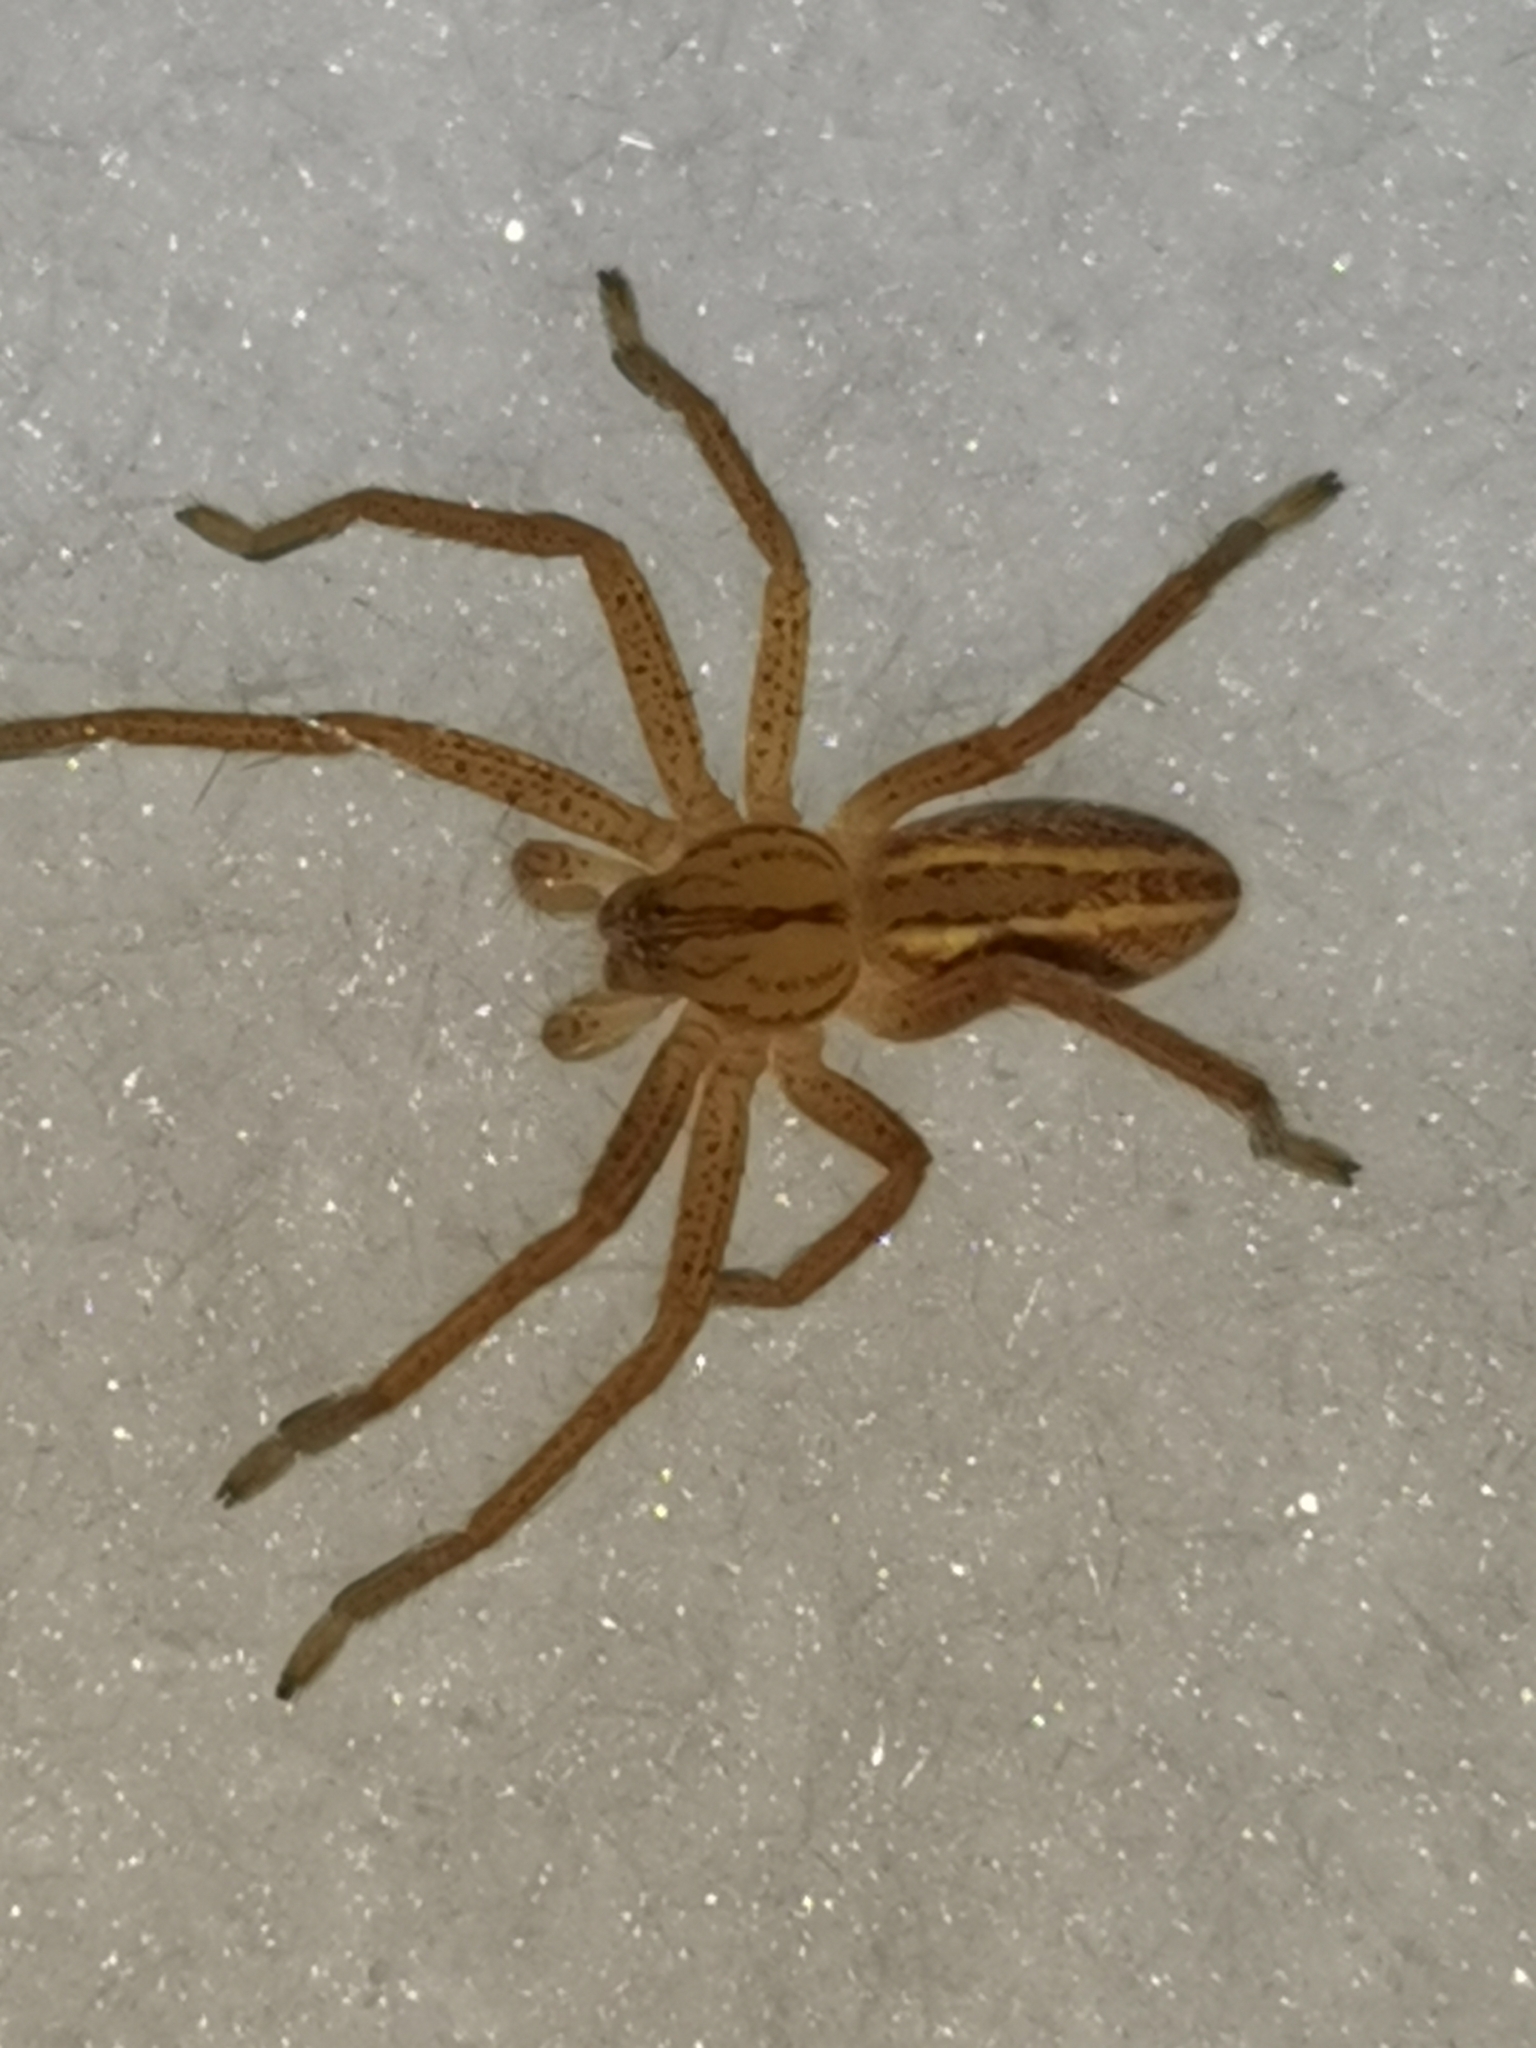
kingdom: Animalia
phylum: Arthropoda
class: Arachnida
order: Araneae
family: Sparassidae
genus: Micrommata
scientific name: Micrommata virescens
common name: Green spider
